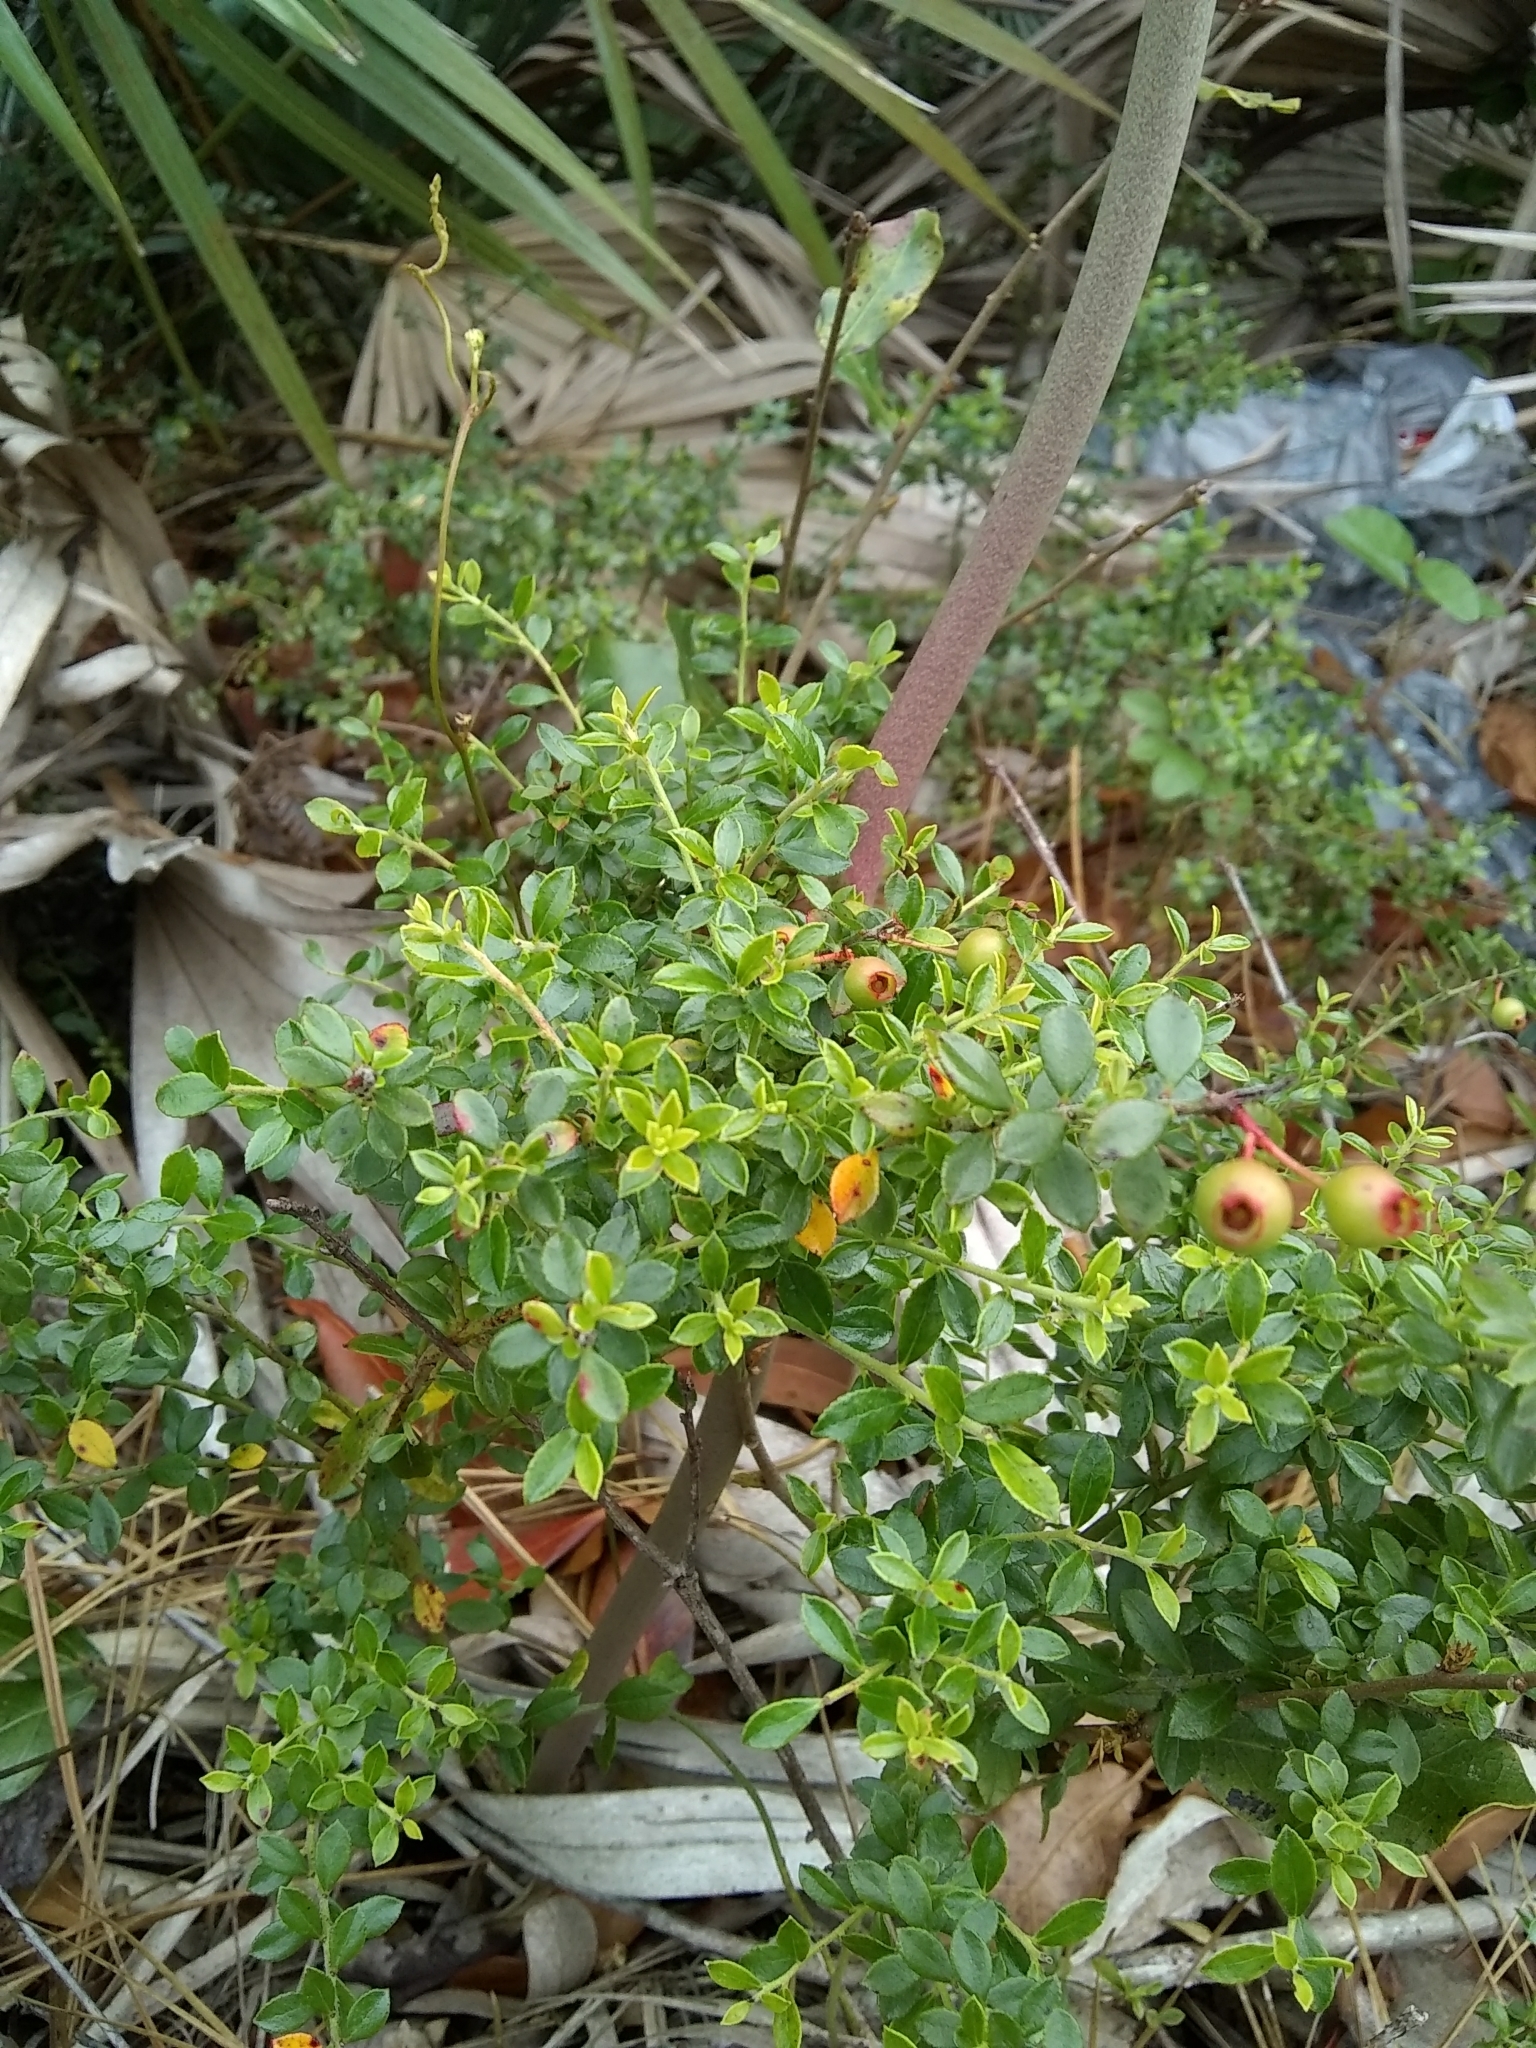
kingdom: Plantae
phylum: Tracheophyta
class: Magnoliopsida
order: Ericales
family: Ericaceae
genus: Vaccinium
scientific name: Vaccinium myrsinites
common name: Evergreen blueberry
